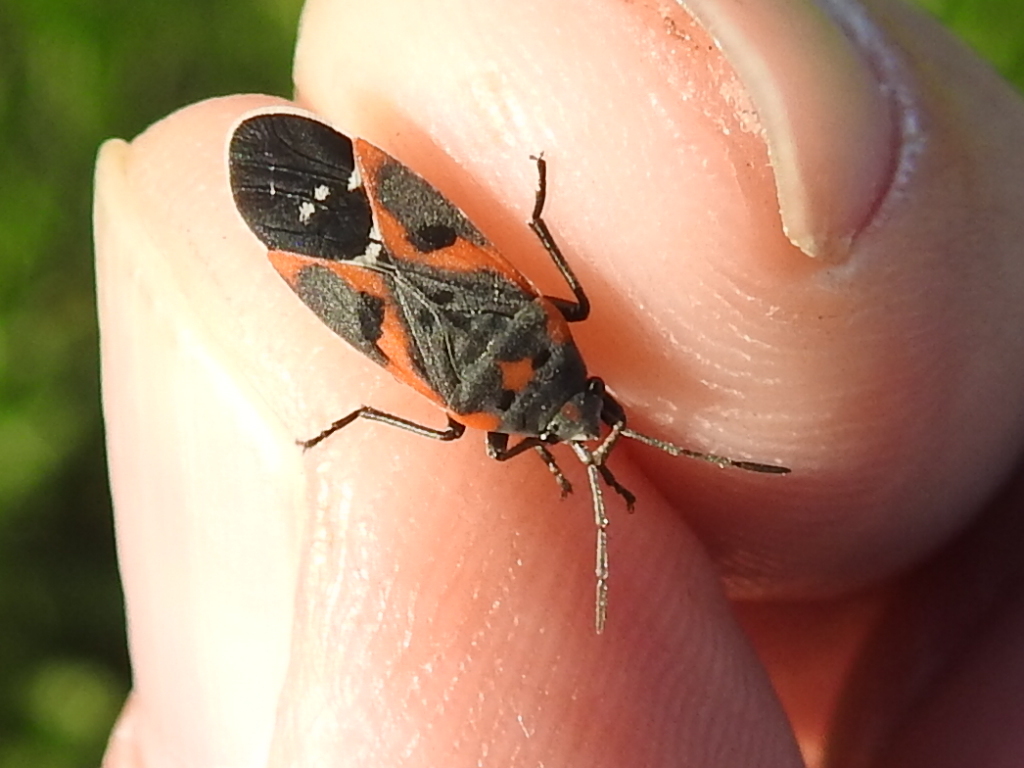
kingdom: Animalia
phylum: Arthropoda
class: Insecta
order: Hemiptera
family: Lygaeidae
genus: Lygaeus
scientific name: Lygaeus kalmii
